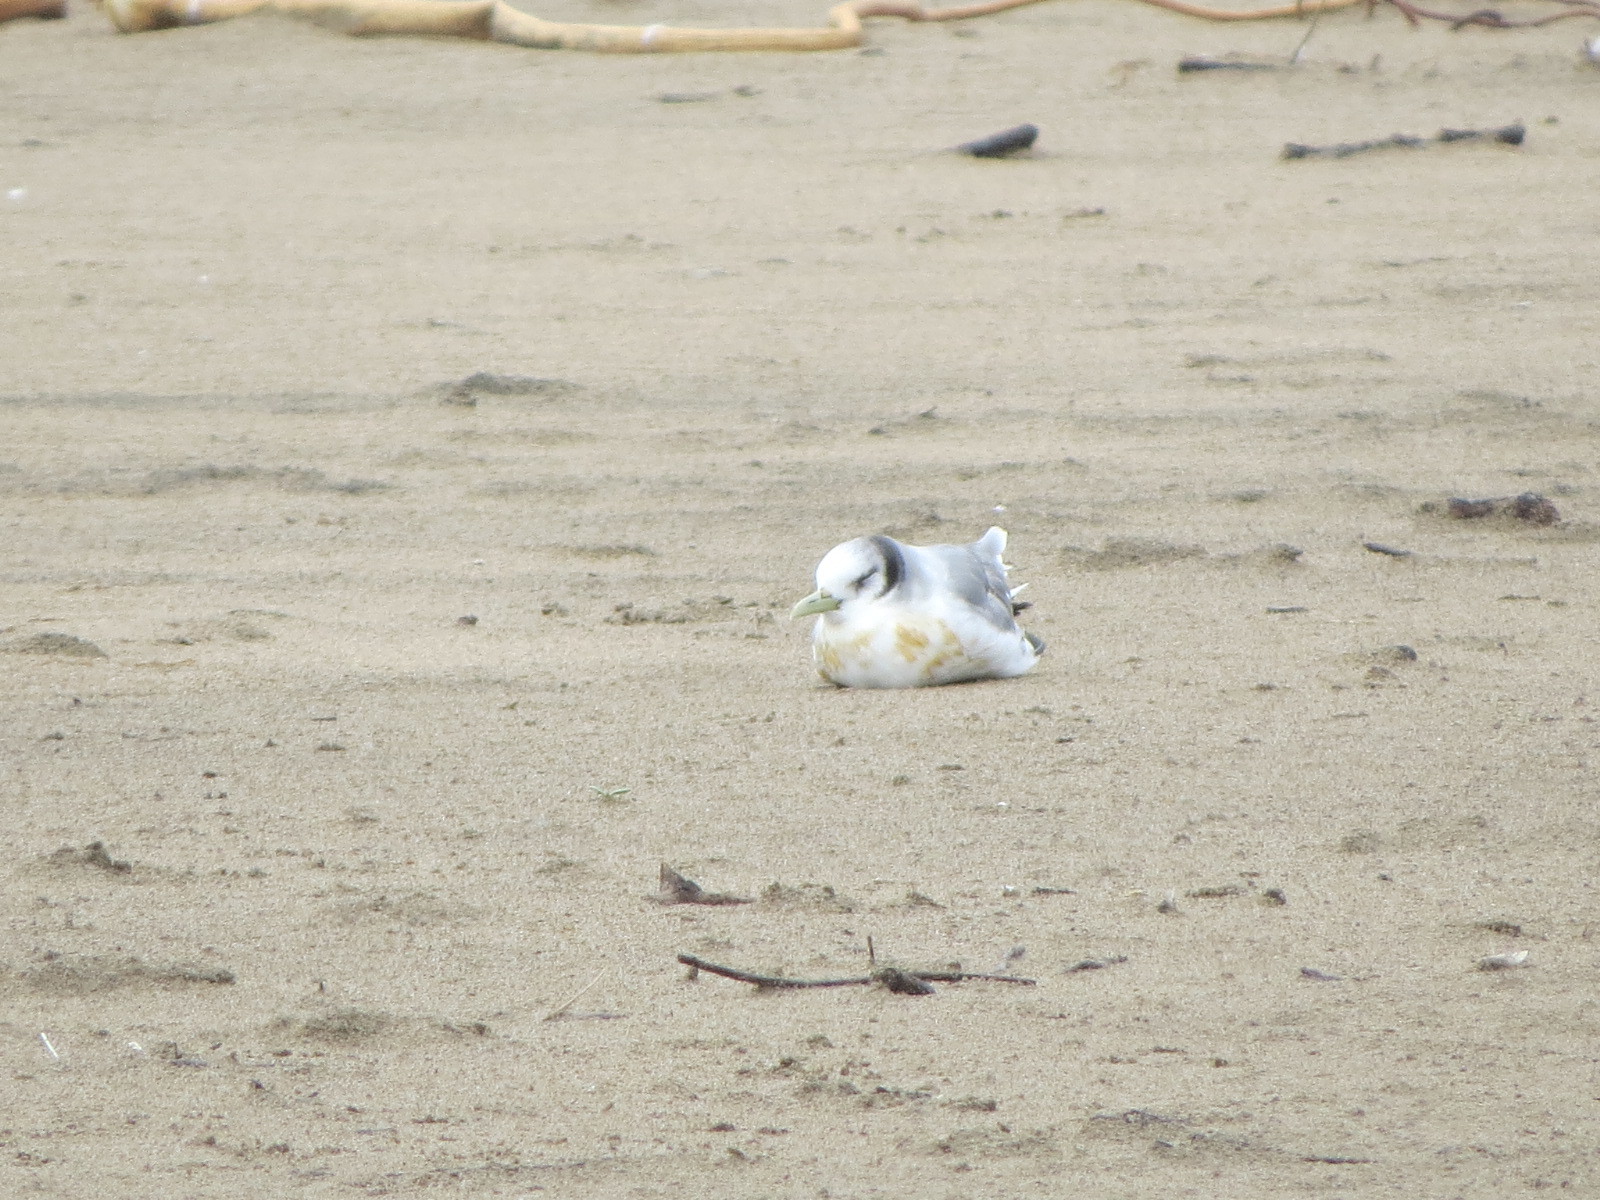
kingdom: Animalia
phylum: Chordata
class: Aves
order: Charadriiformes
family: Laridae
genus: Rissa
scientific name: Rissa tridactyla
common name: Black-legged kittiwake
